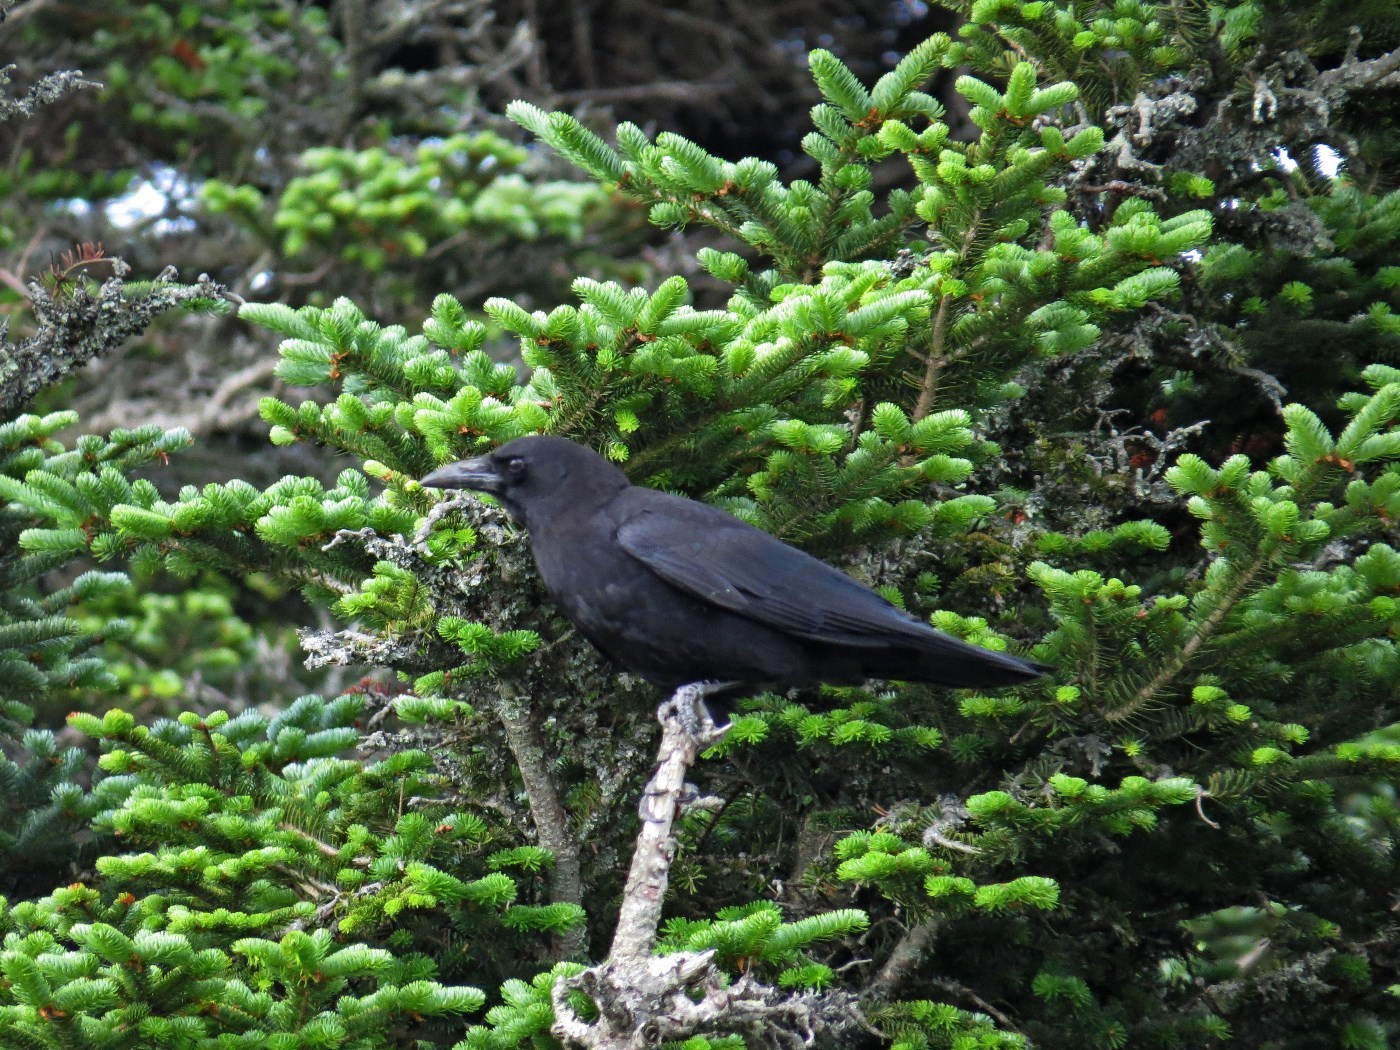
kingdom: Animalia
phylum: Chordata
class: Aves
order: Passeriformes
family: Corvidae
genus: Corvus
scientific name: Corvus corax
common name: Common raven
